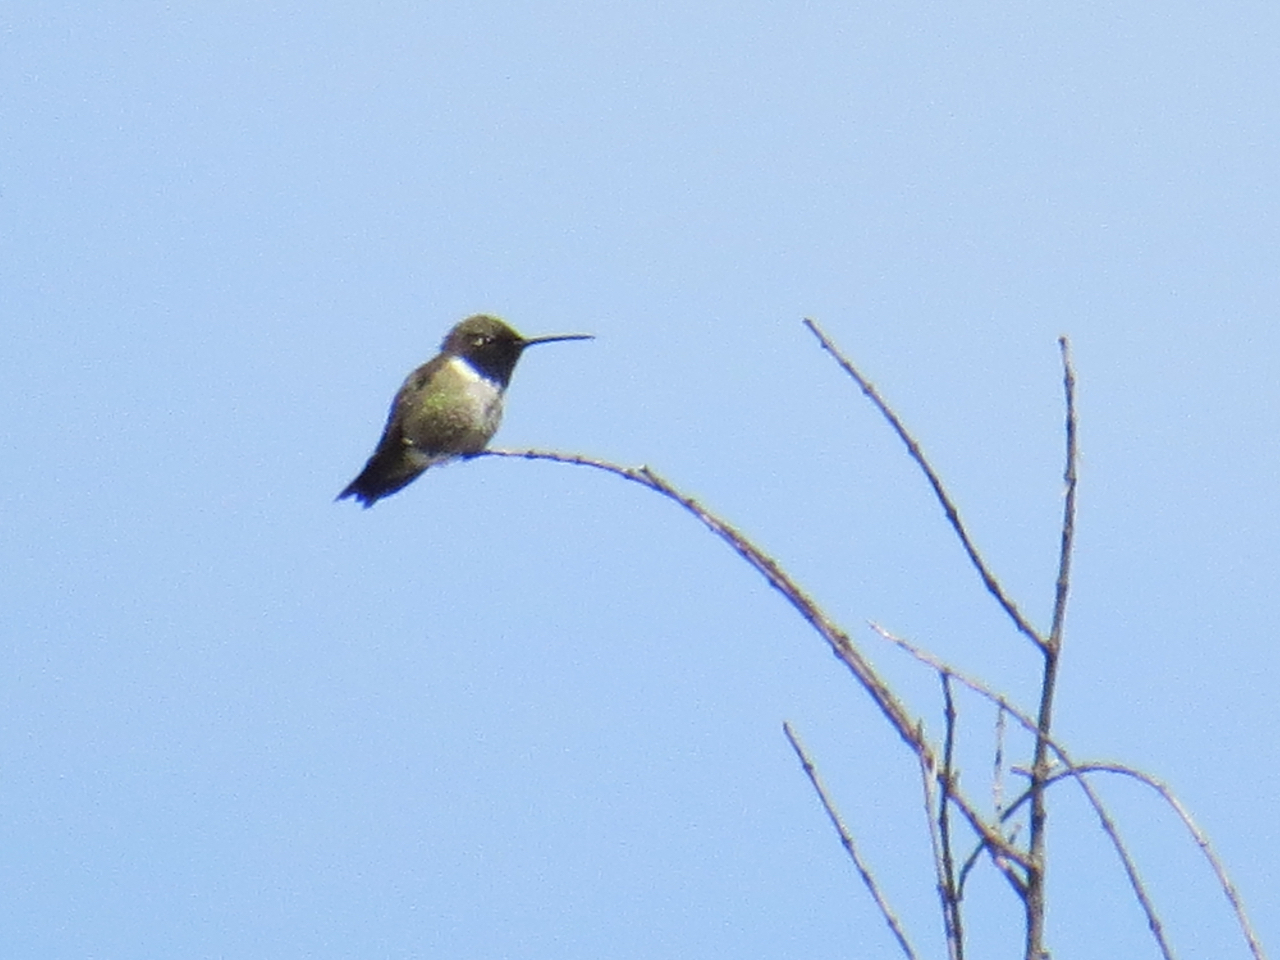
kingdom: Animalia
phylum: Chordata
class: Aves
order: Apodiformes
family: Trochilidae
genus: Archilochus
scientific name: Archilochus alexandri
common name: Black-chinned hummingbird
